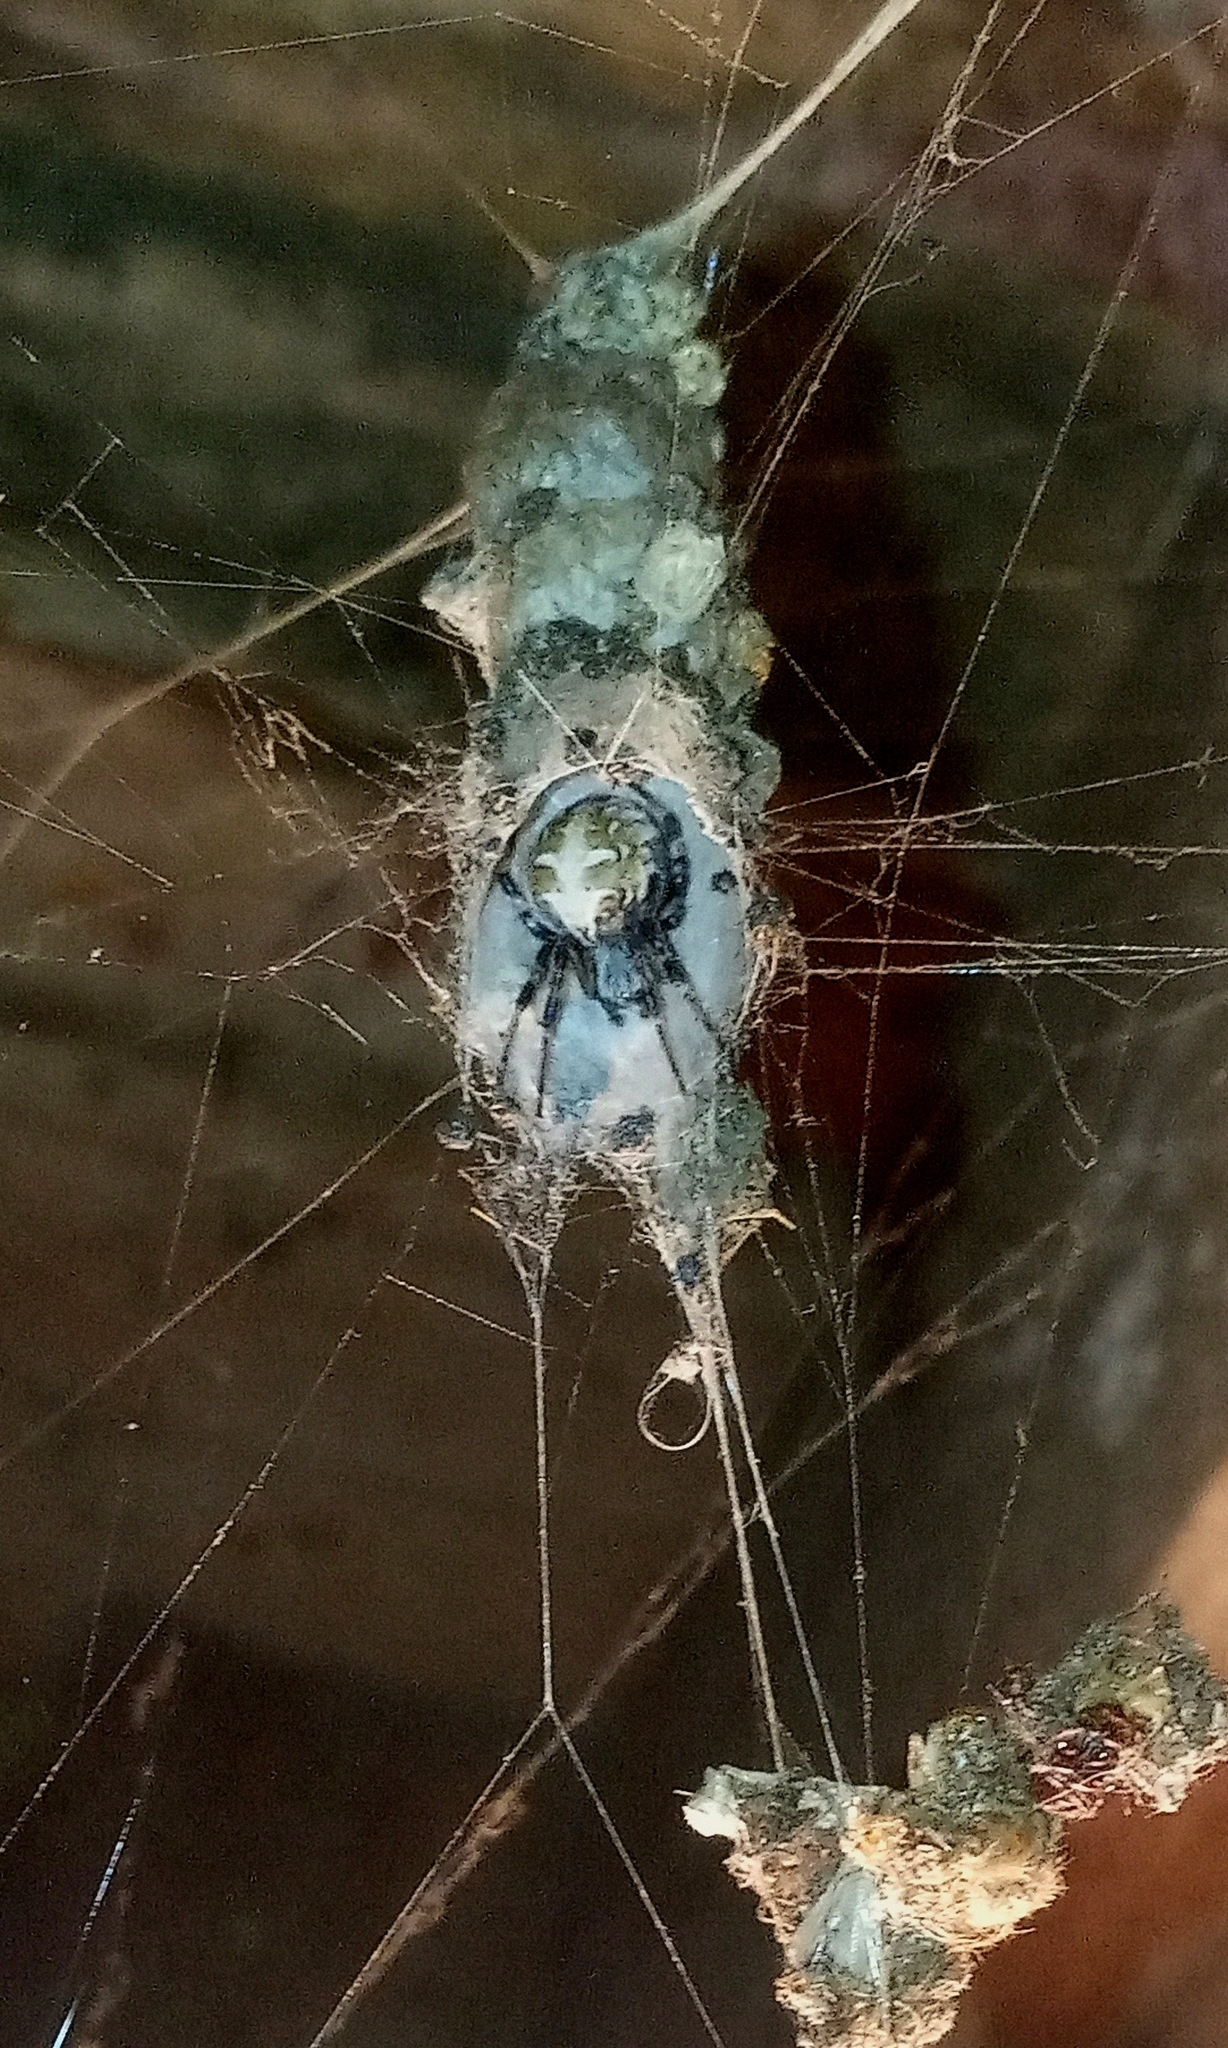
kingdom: Animalia
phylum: Arthropoda
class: Arachnida
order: Araneae
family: Araneidae
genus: Metepeira
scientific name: Metepeira
